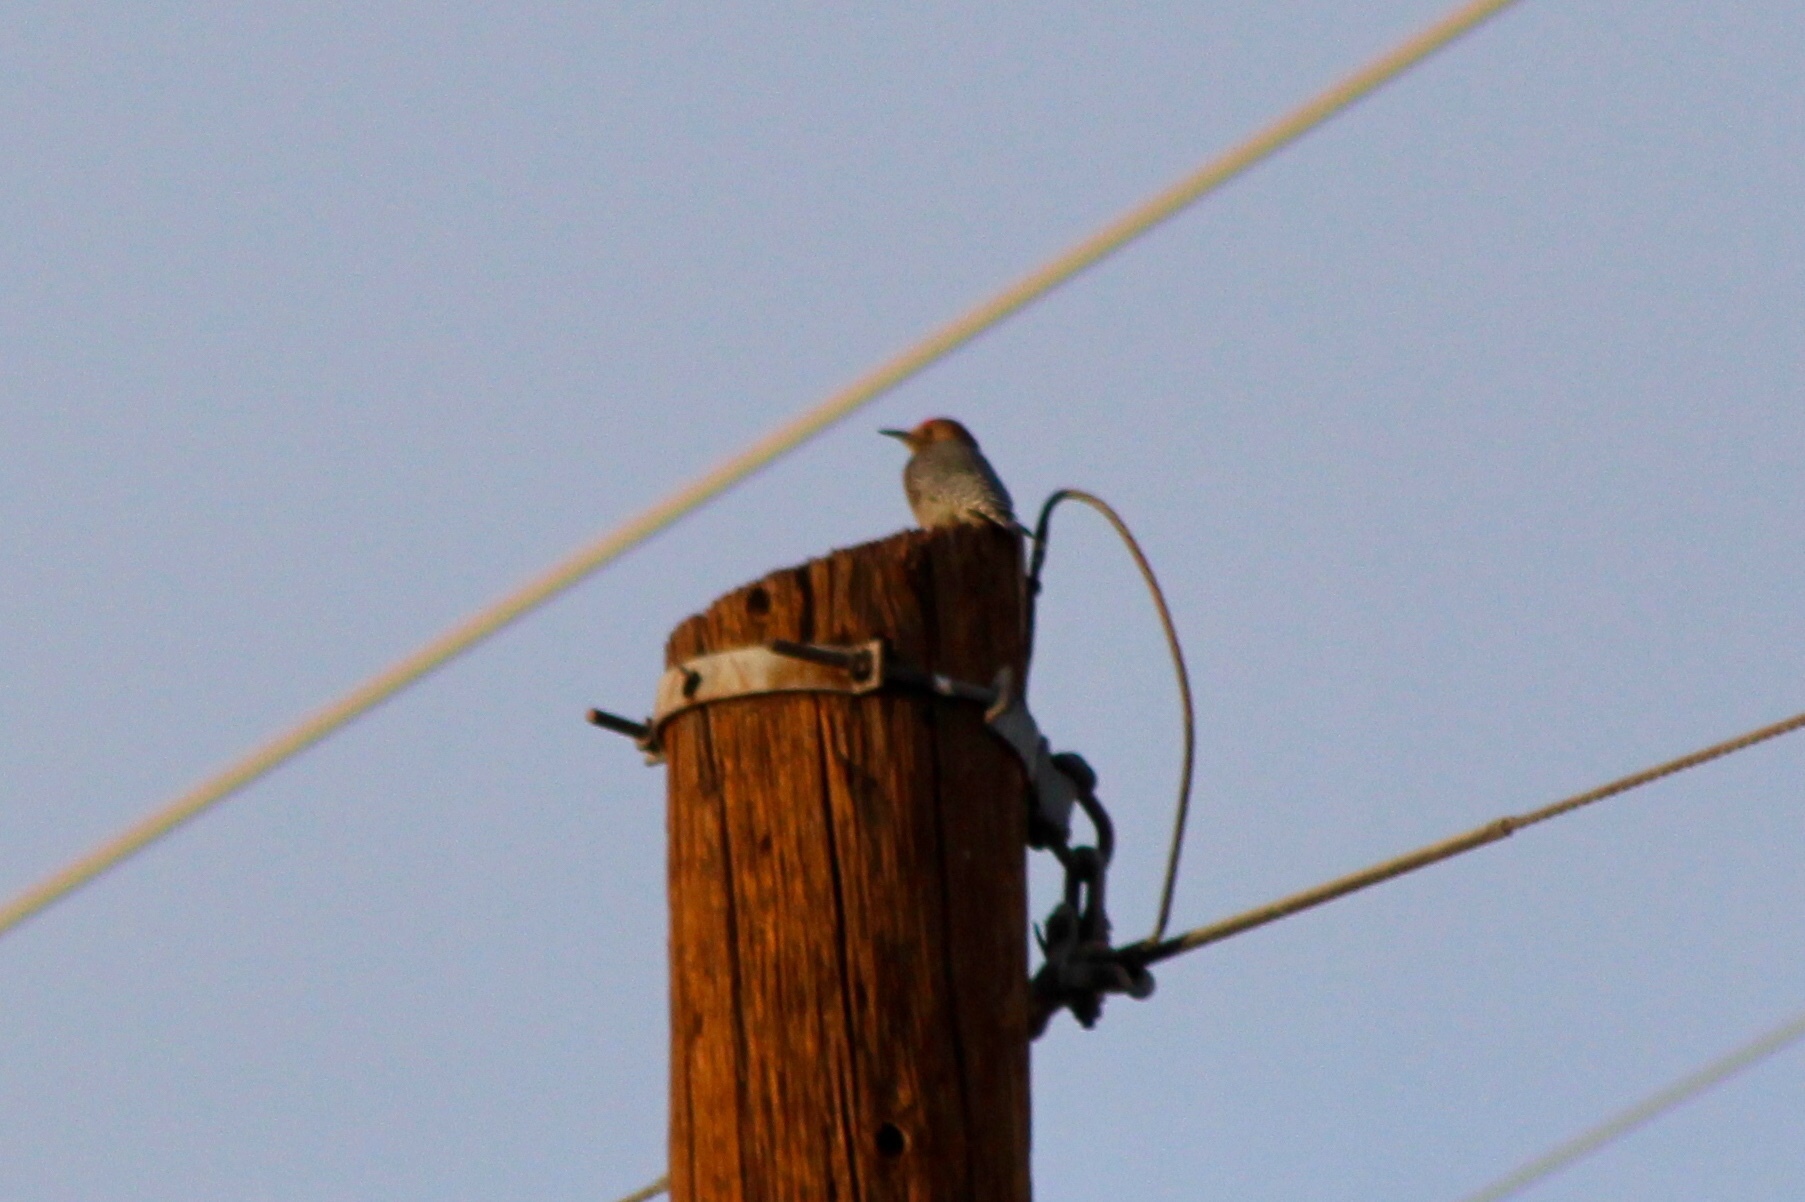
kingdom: Animalia
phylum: Chordata
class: Aves
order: Piciformes
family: Picidae
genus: Melanerpes
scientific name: Melanerpes uropygialis
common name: Gila woodpecker
